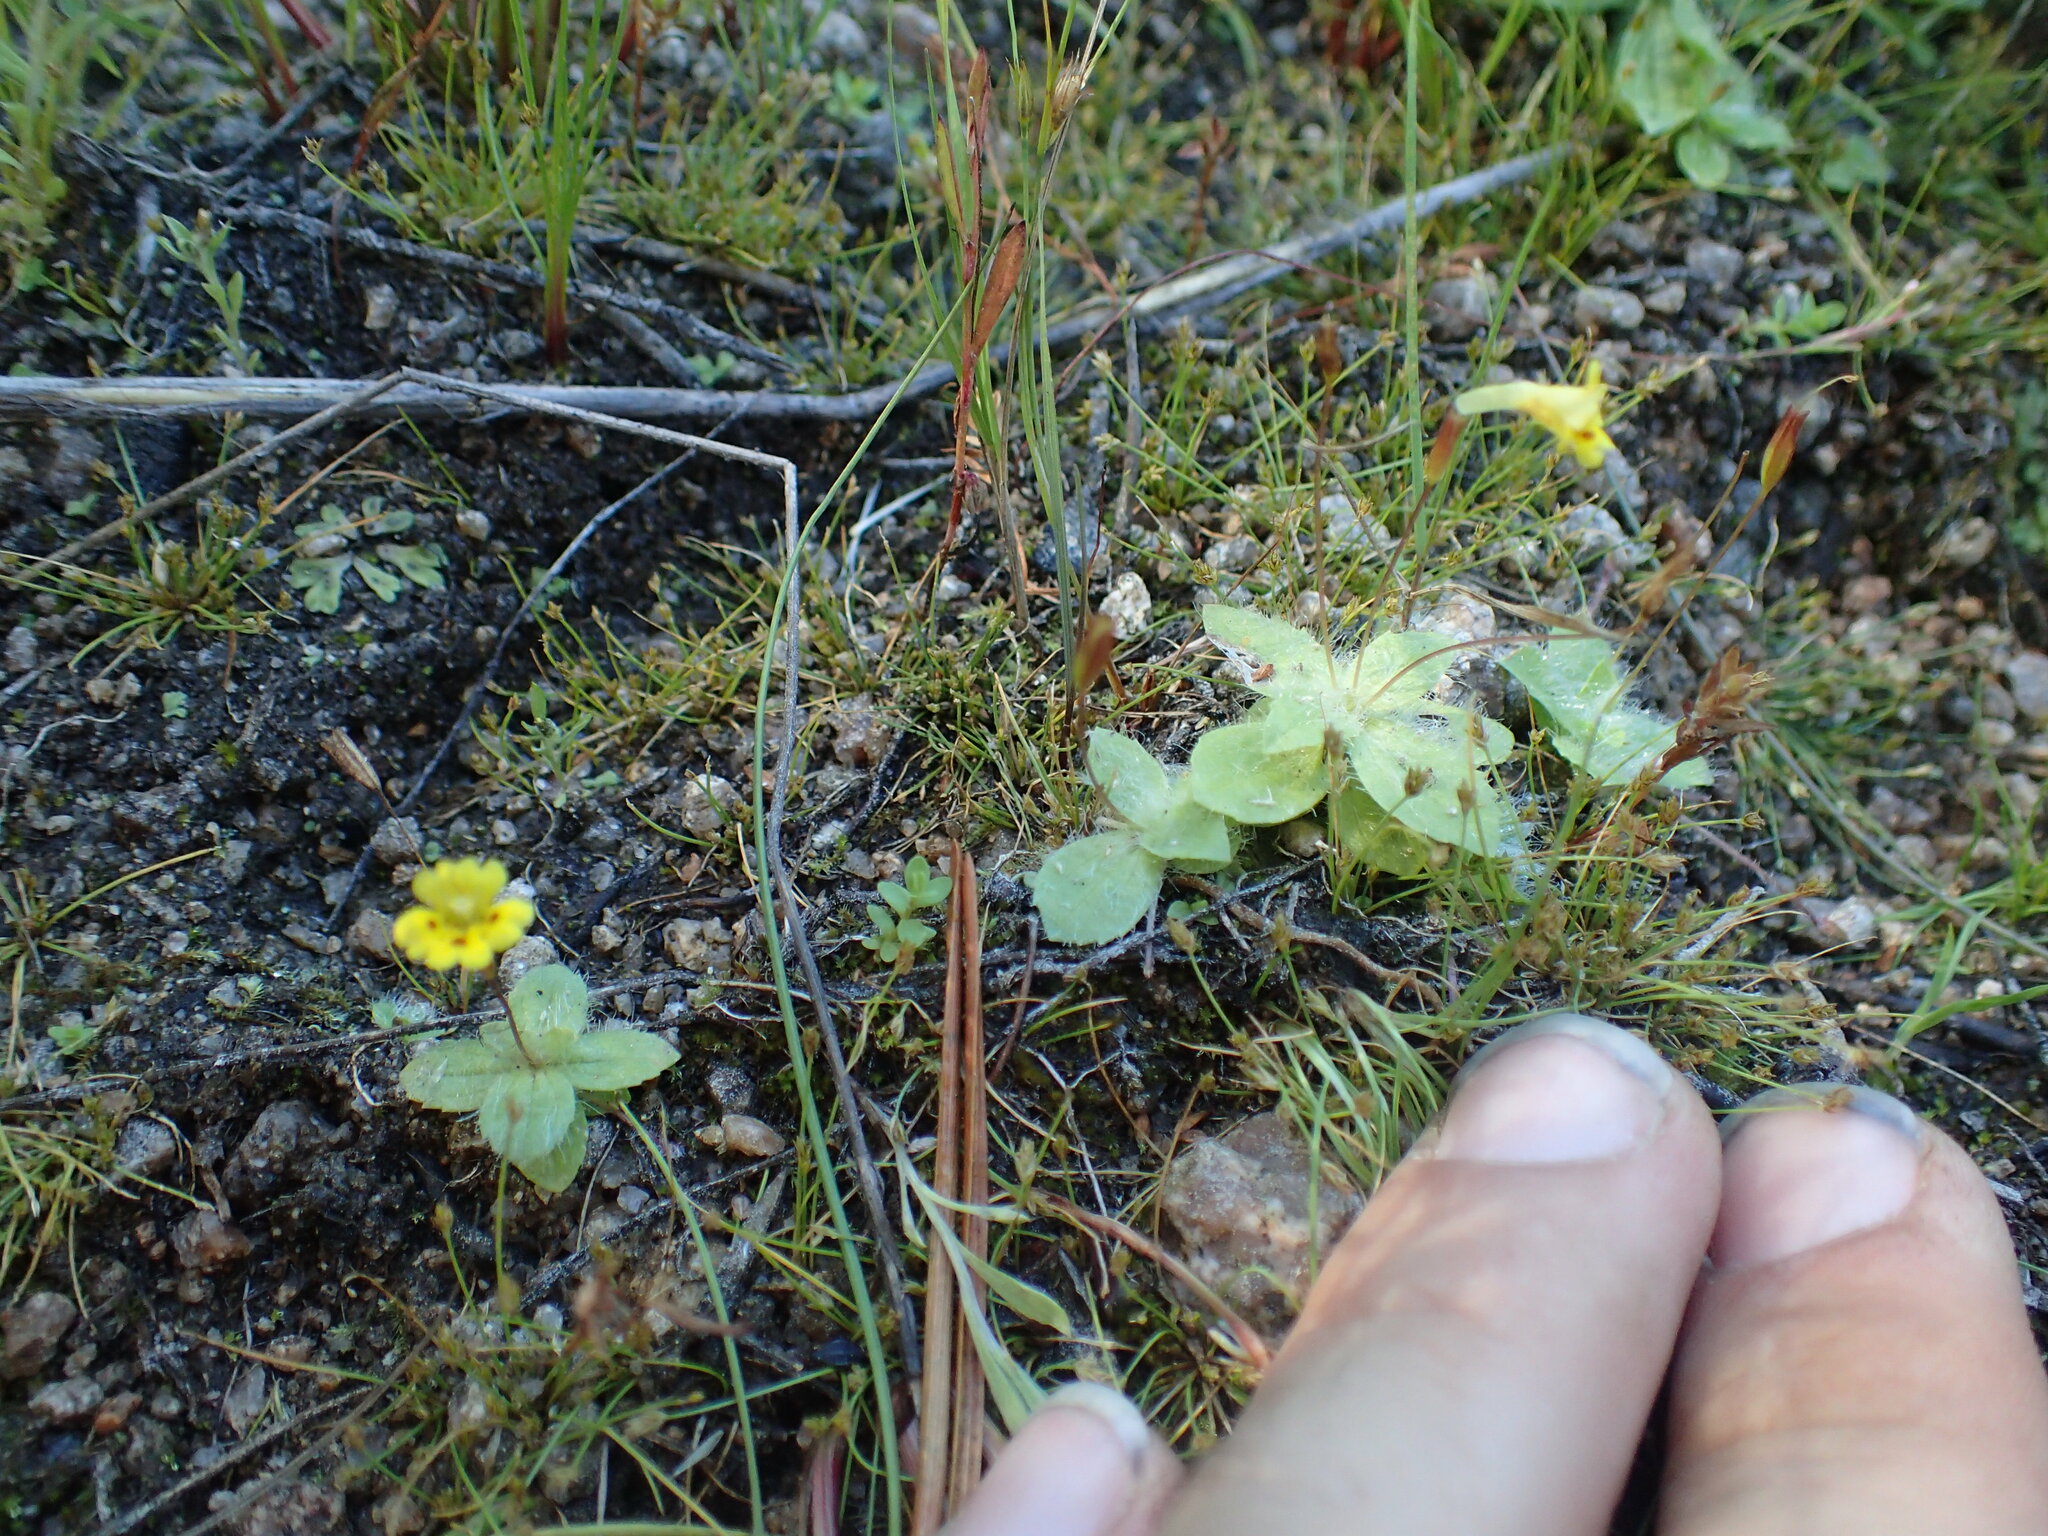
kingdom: Plantae
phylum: Tracheophyta
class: Magnoliopsida
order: Lamiales
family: Phrymaceae
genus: Erythranthe
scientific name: Erythranthe primuloides
